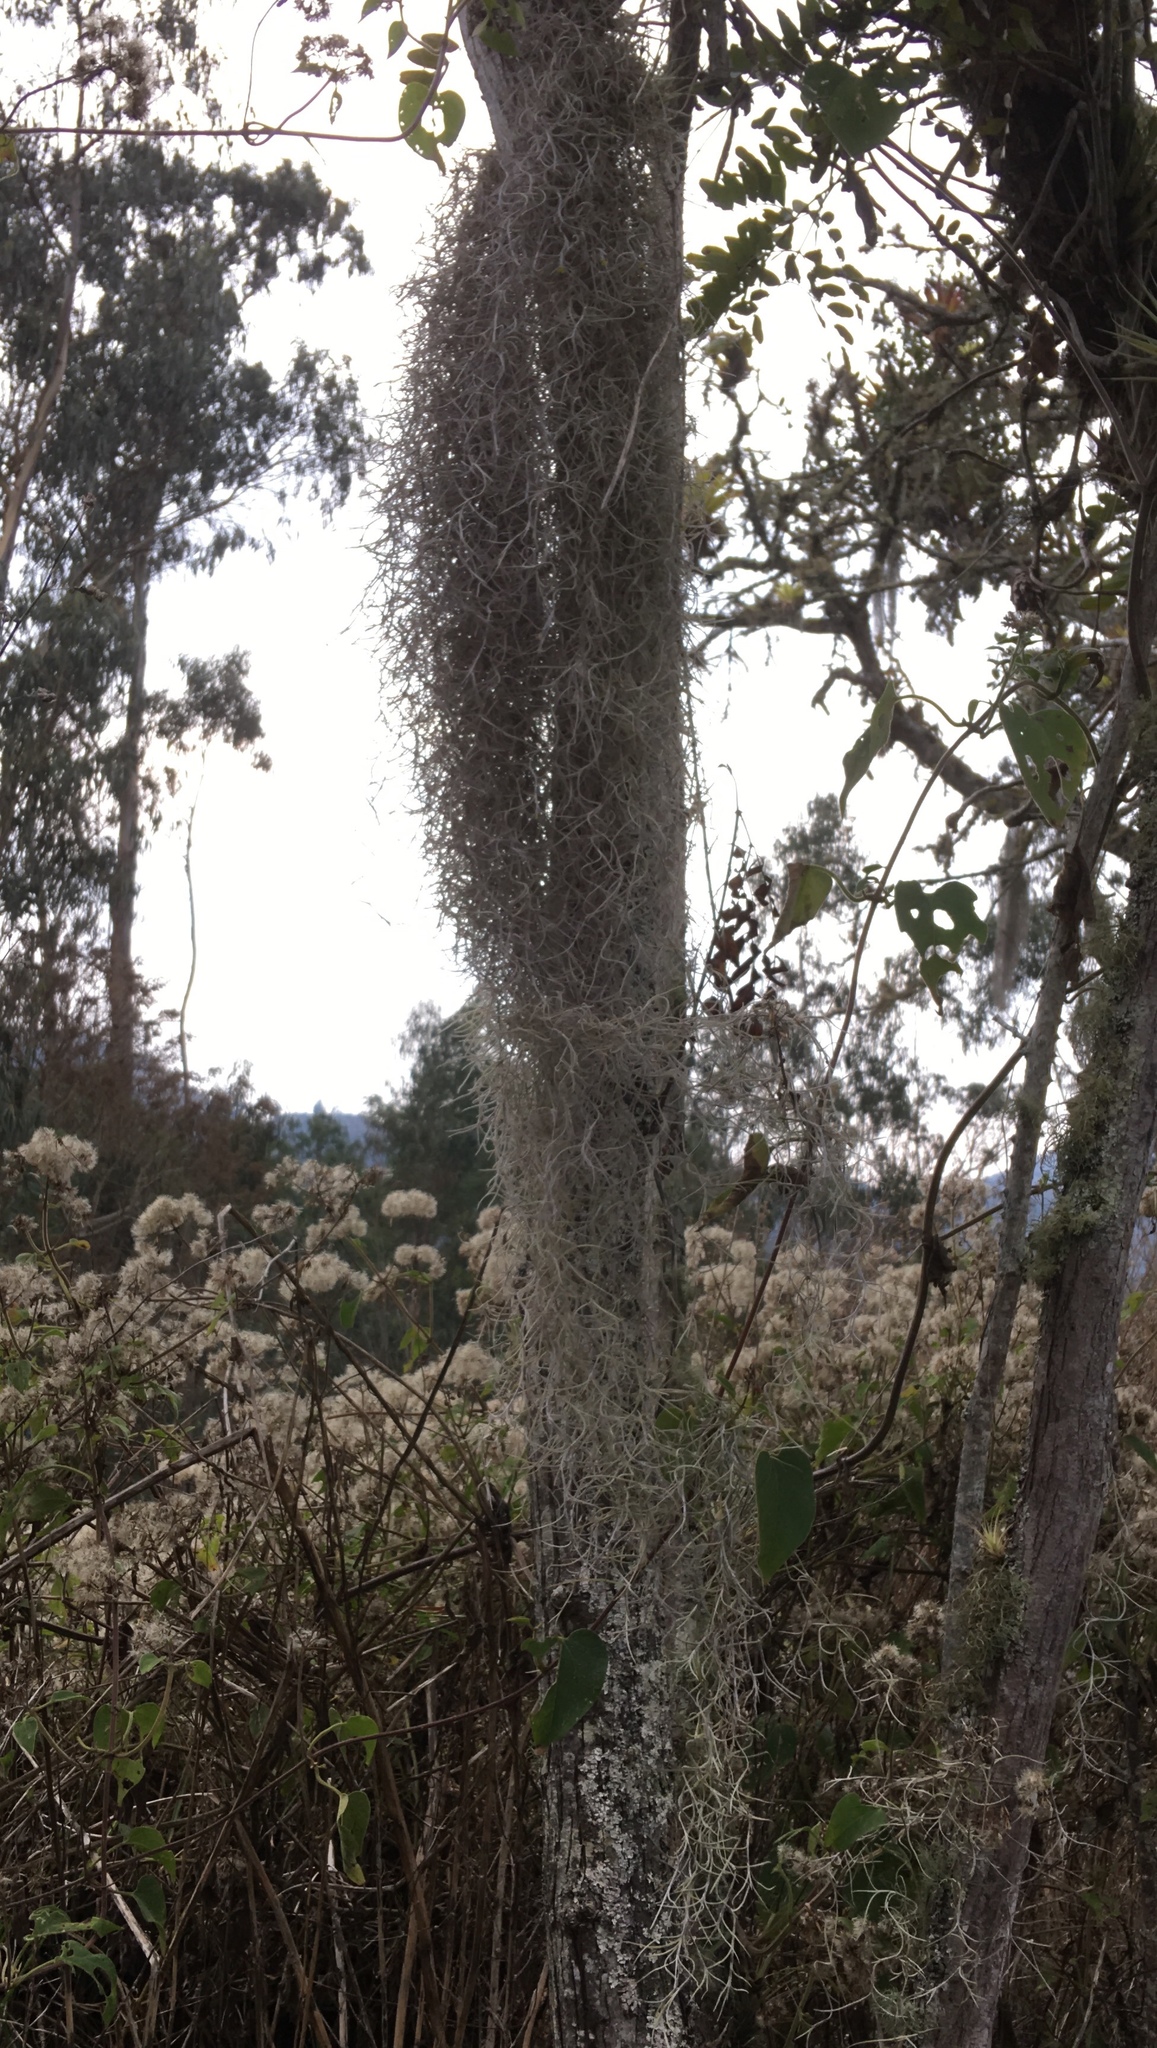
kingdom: Plantae
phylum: Tracheophyta
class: Liliopsida
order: Poales
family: Bromeliaceae
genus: Tillandsia
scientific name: Tillandsia usneoides
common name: Spanish moss
